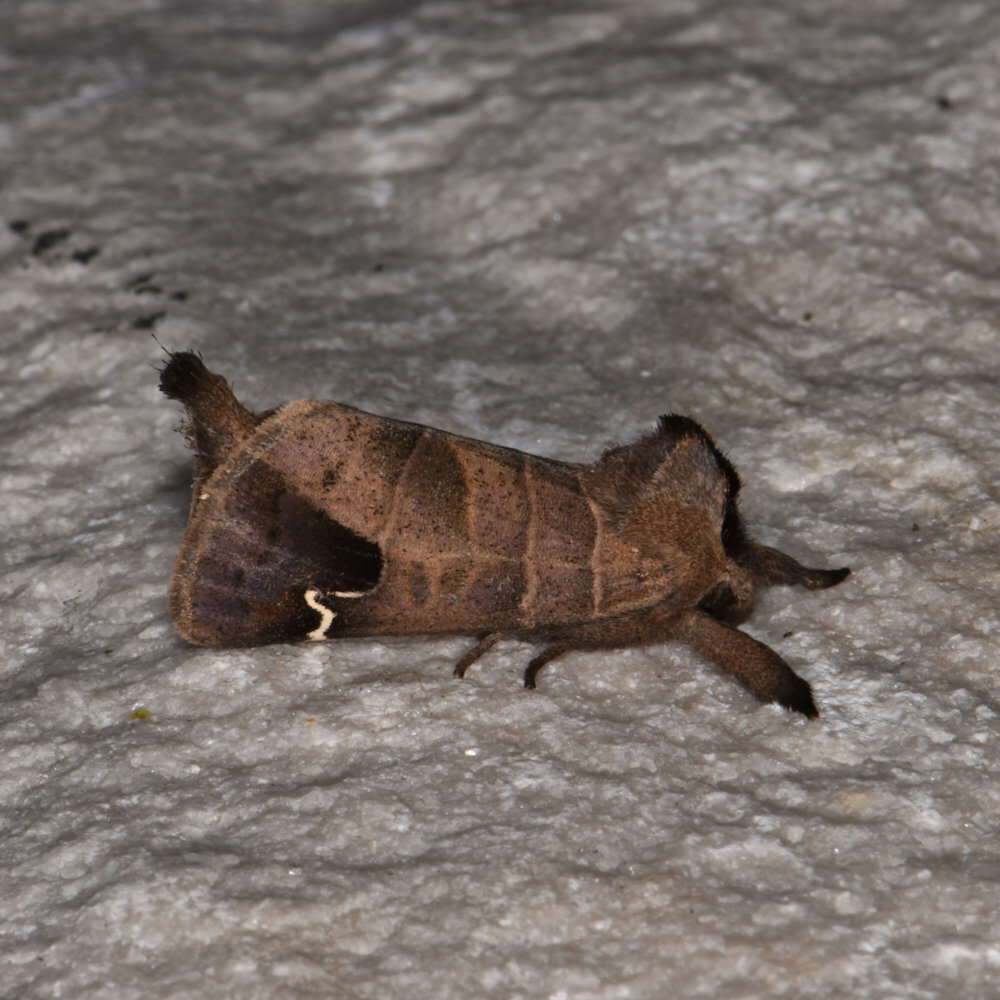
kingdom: Animalia
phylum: Arthropoda
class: Insecta
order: Lepidoptera
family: Notodontidae
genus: Clostera
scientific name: Clostera albosigma
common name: Sigmoid prominent
